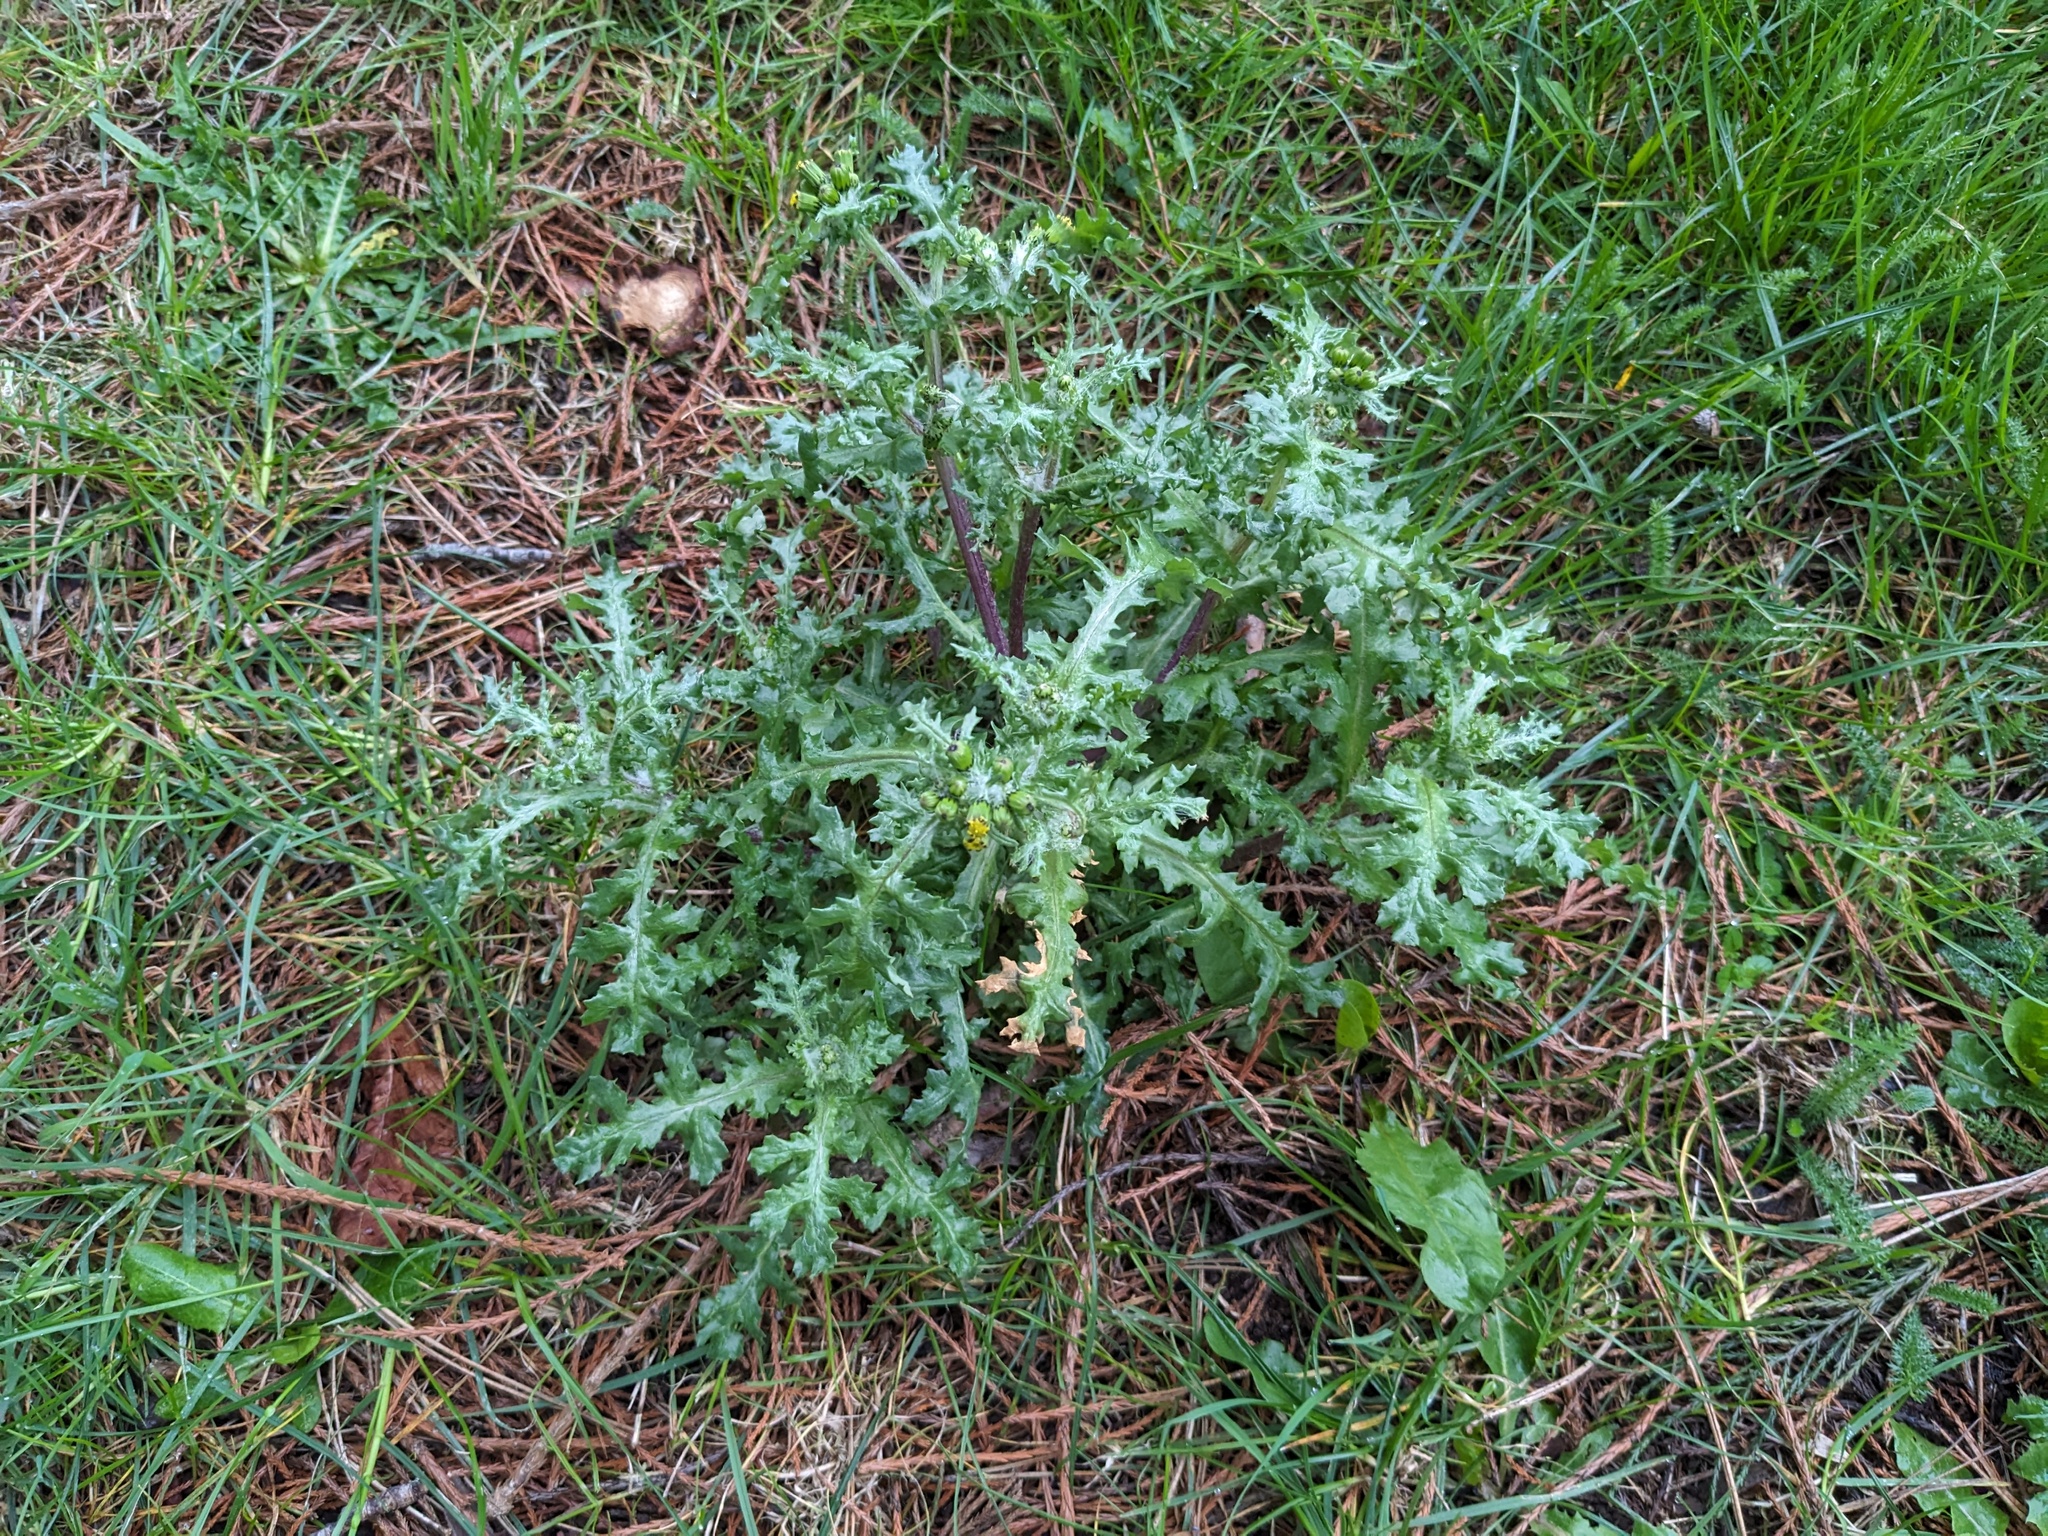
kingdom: Plantae
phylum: Tracheophyta
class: Magnoliopsida
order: Asterales
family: Asteraceae
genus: Senecio
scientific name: Senecio vulgaris
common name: Old-man-in-the-spring
